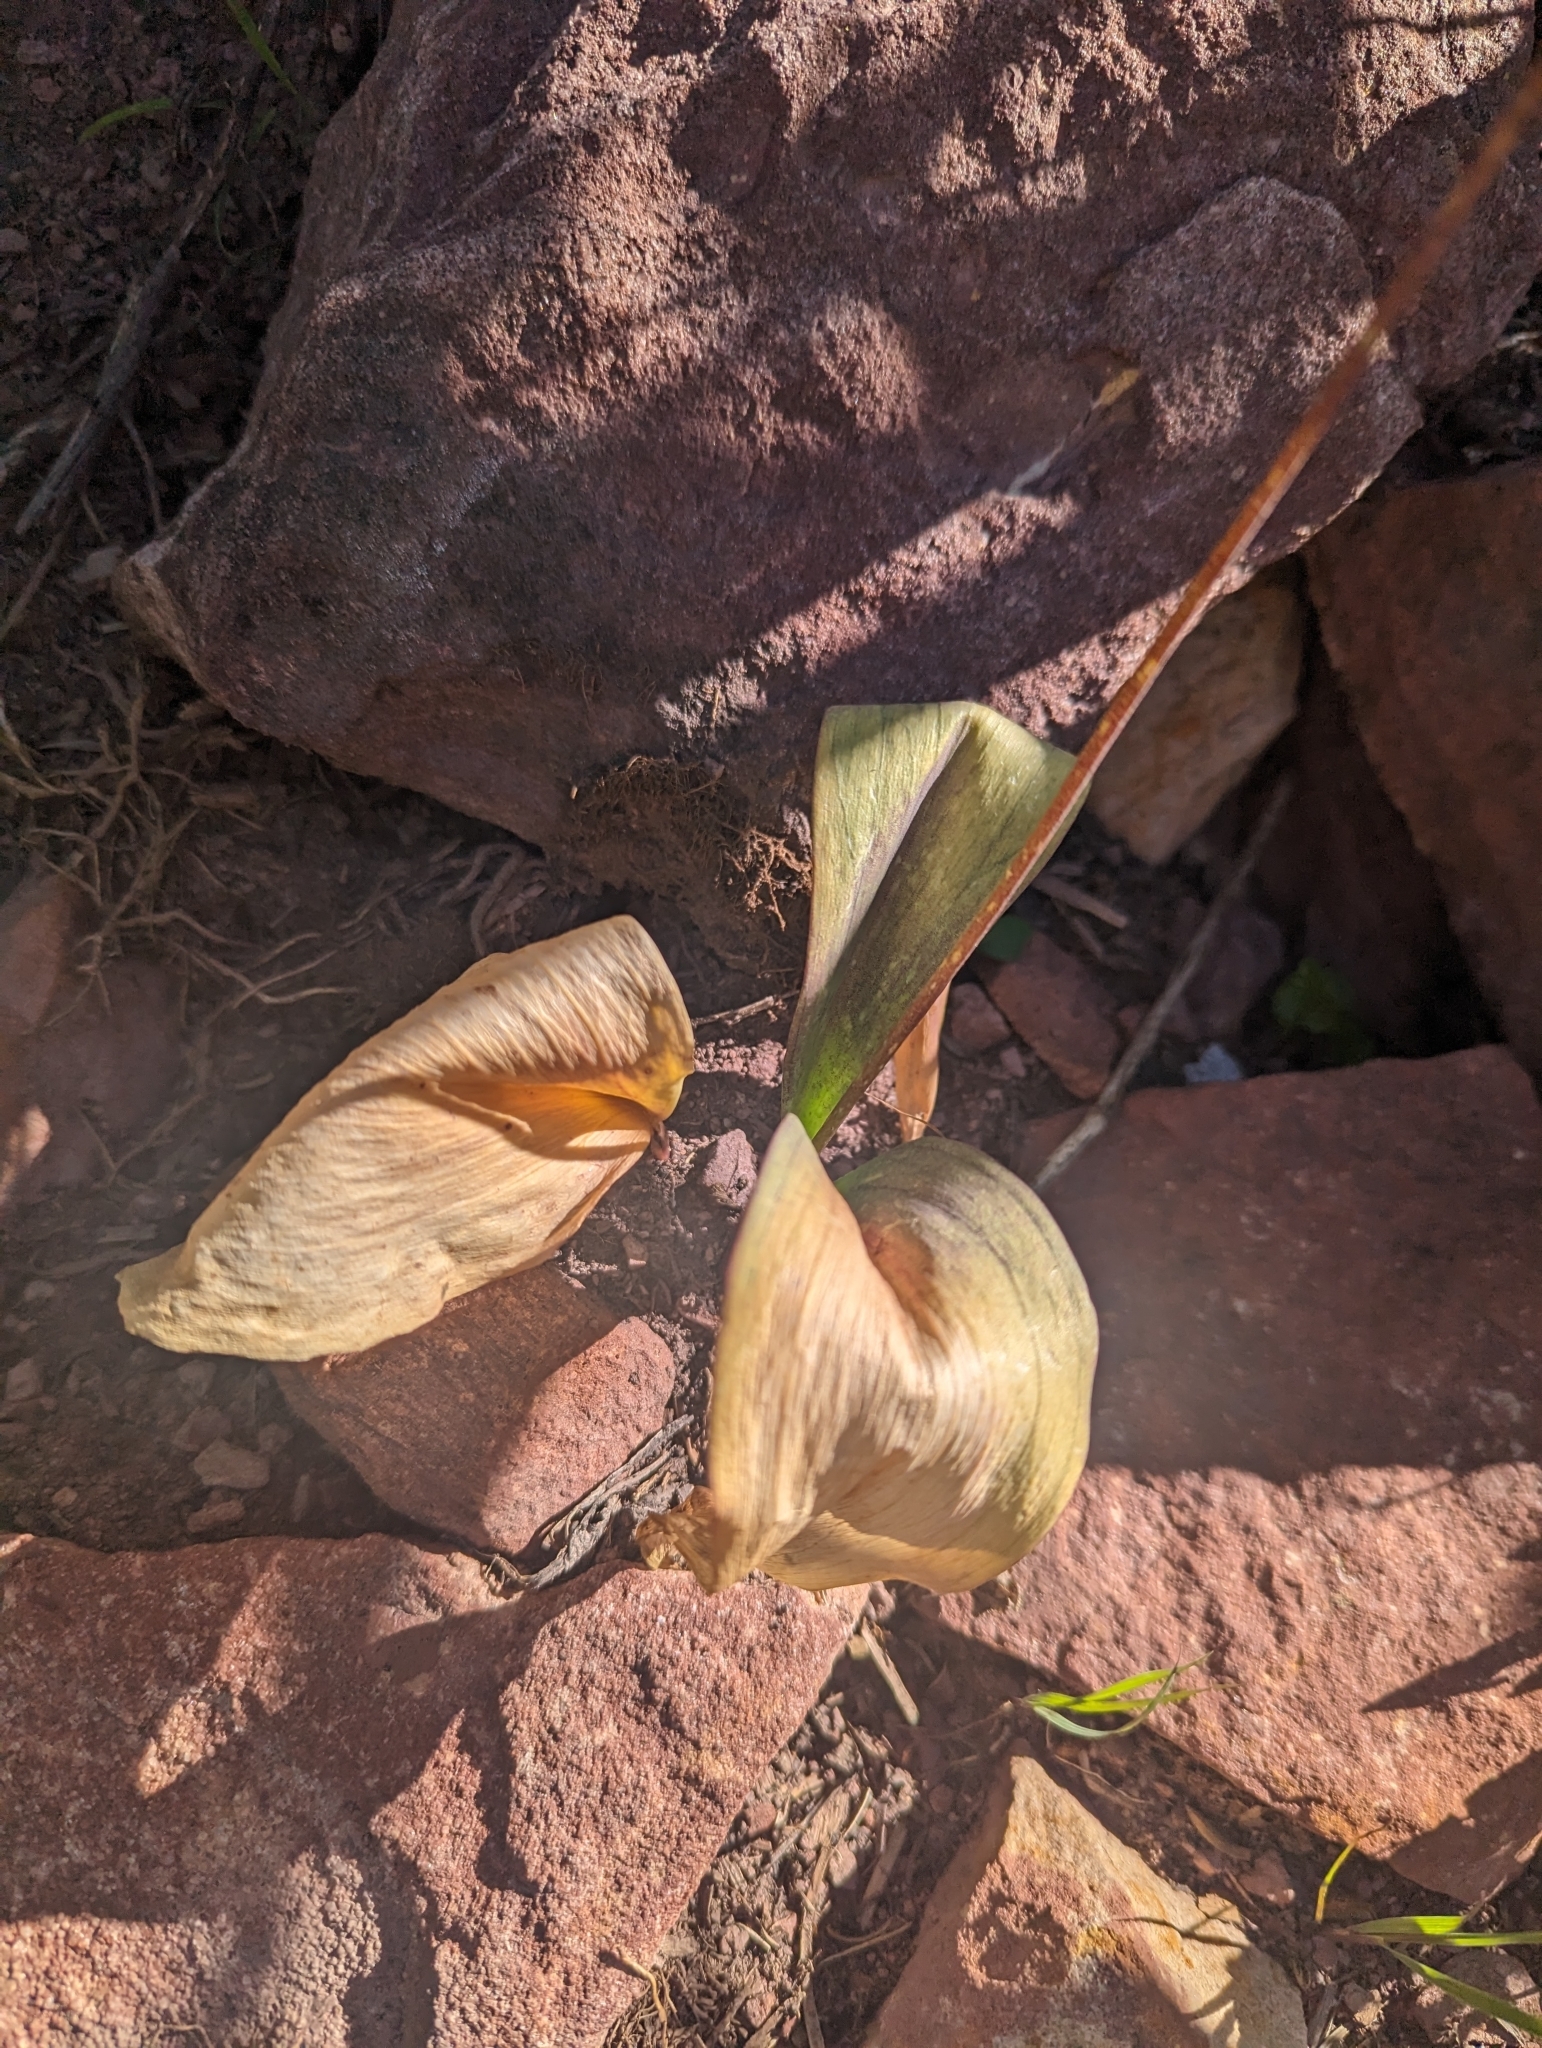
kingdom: Plantae
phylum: Tracheophyta
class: Liliopsida
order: Liliales
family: Liliaceae
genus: Erythronium
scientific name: Erythronium grandiflorum
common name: Avalanche-lily
